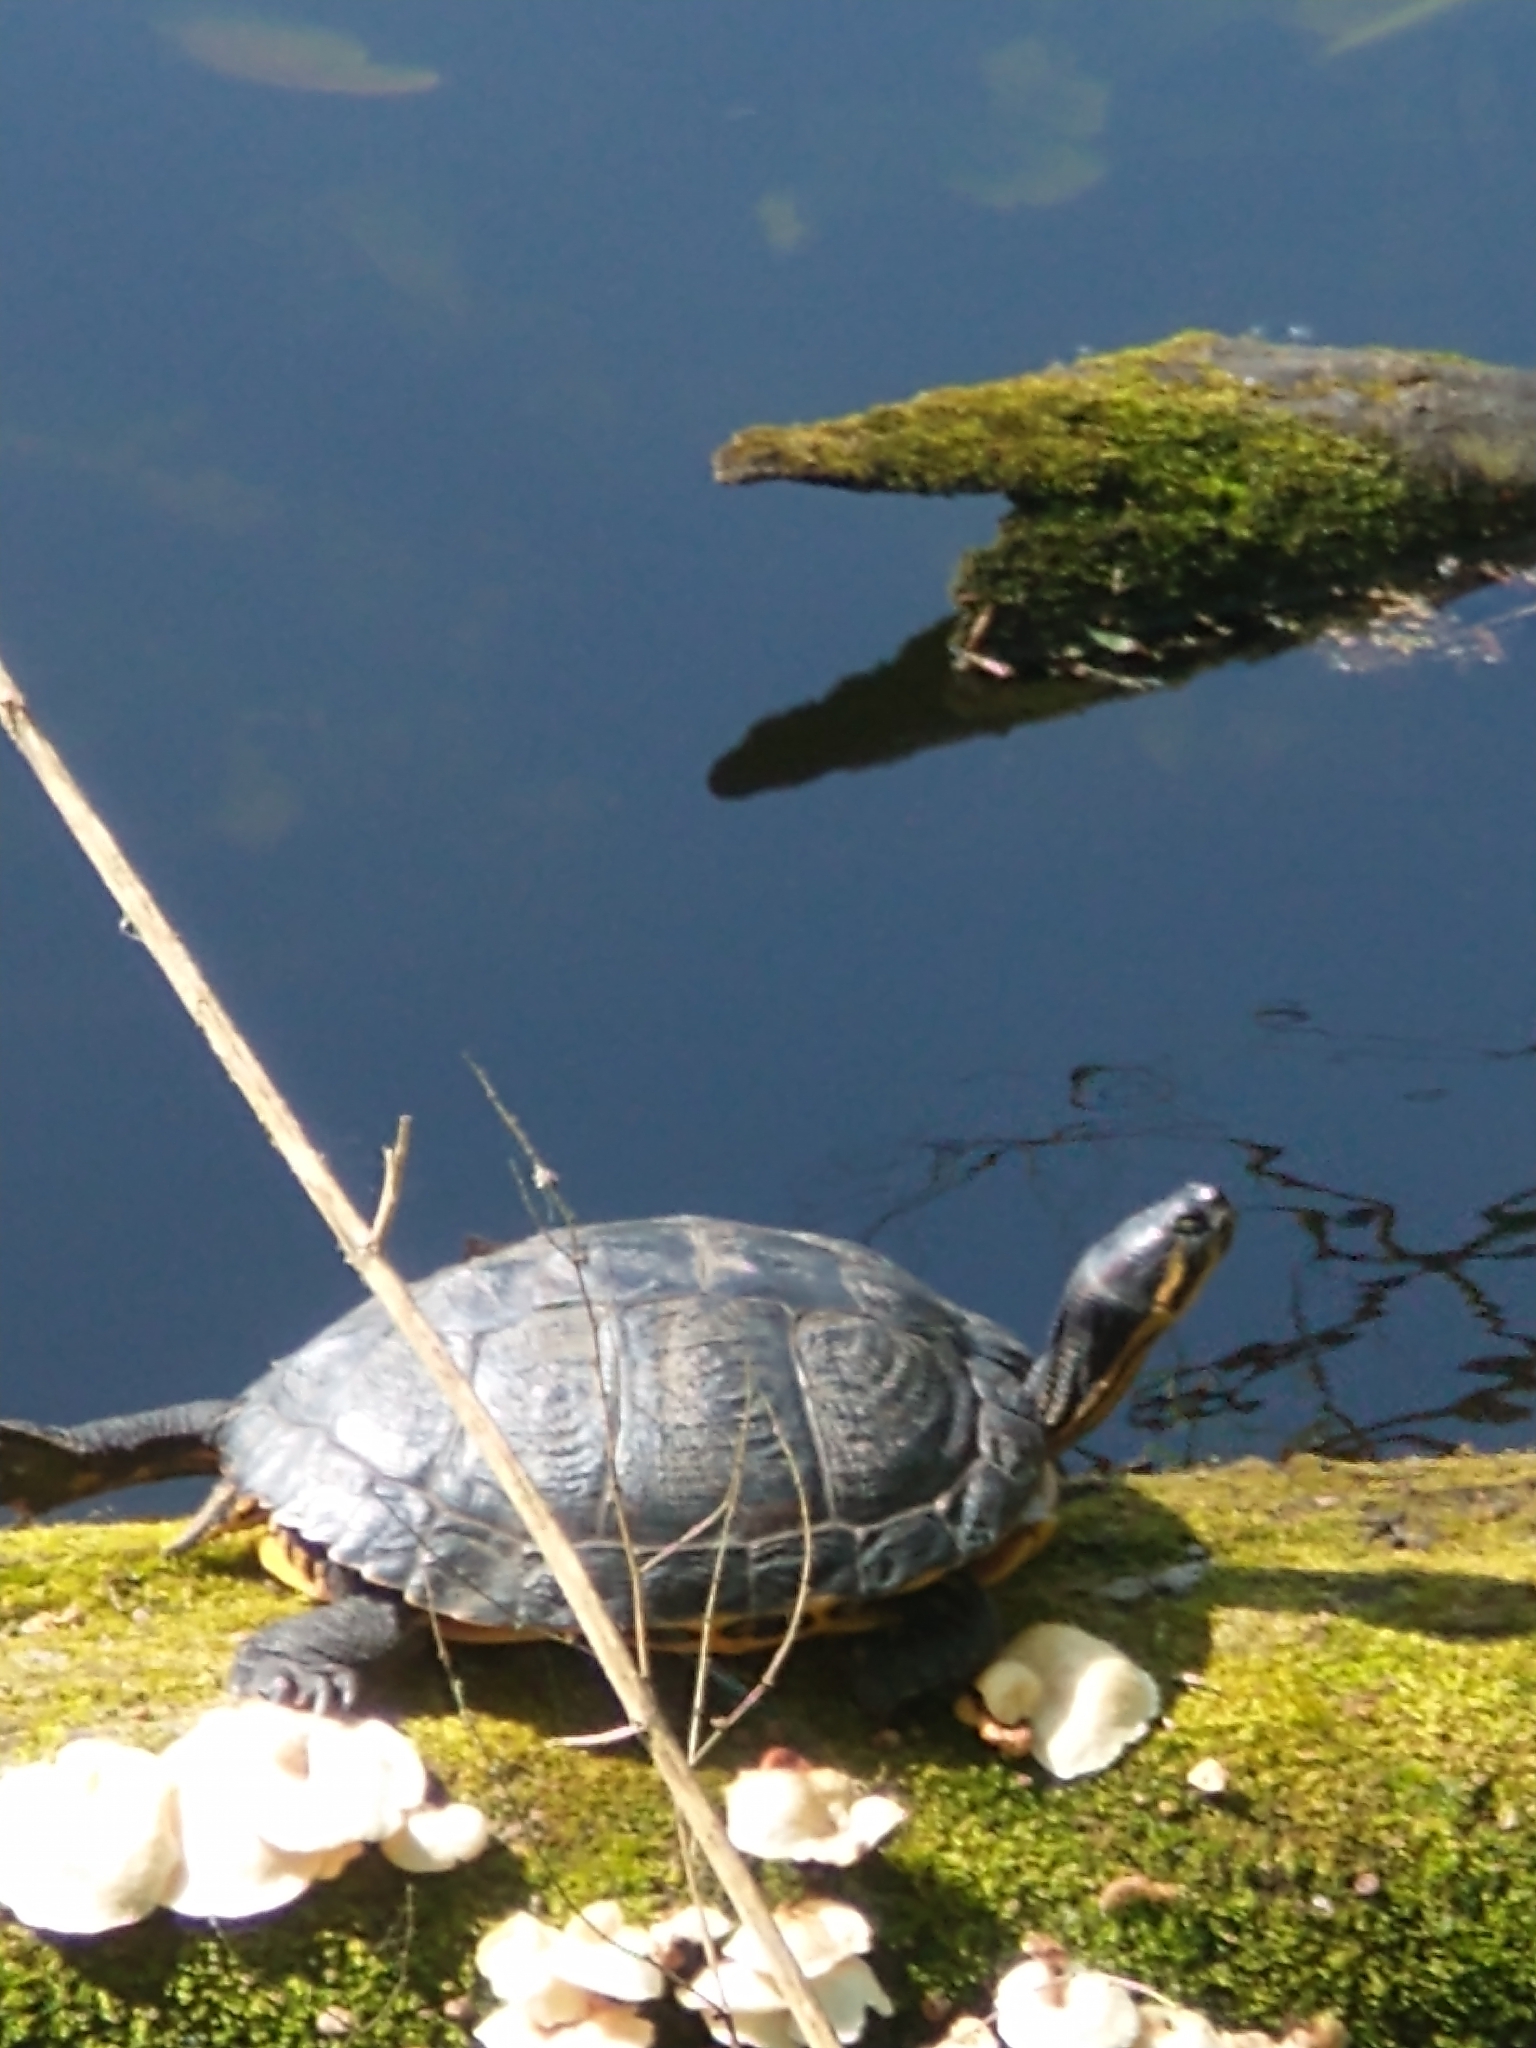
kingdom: Animalia
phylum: Chordata
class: Testudines
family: Emydidae
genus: Trachemys
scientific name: Trachemys scripta
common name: Slider
